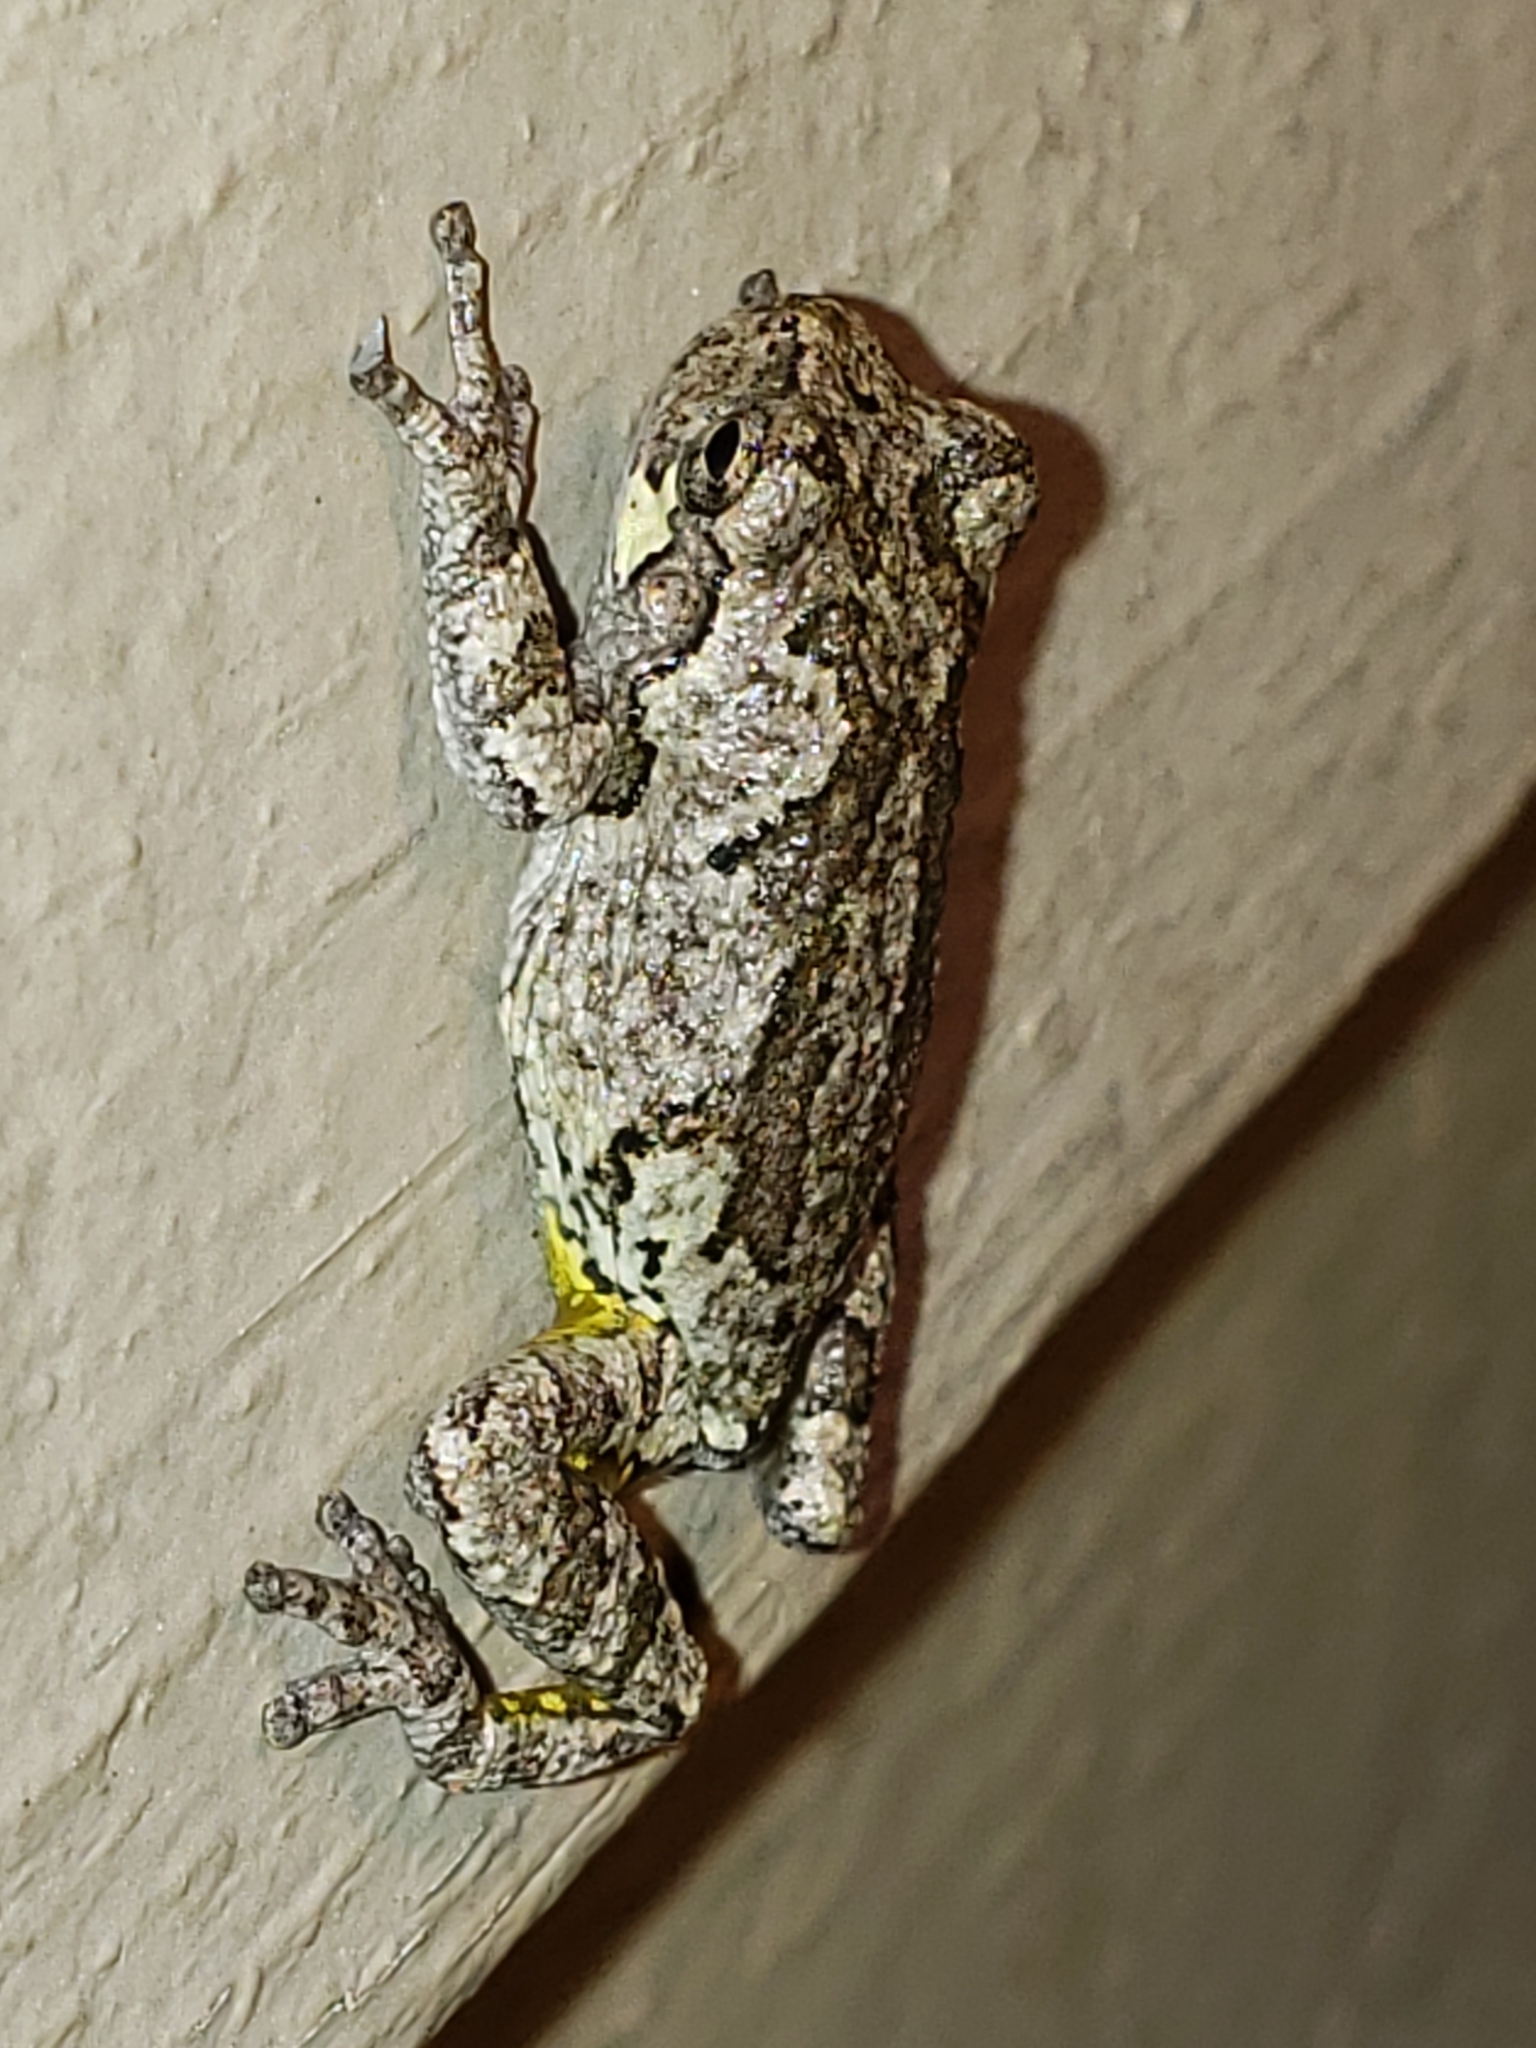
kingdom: Animalia
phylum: Chordata
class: Amphibia
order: Anura
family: Hylidae
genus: Hyla
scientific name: Hyla
